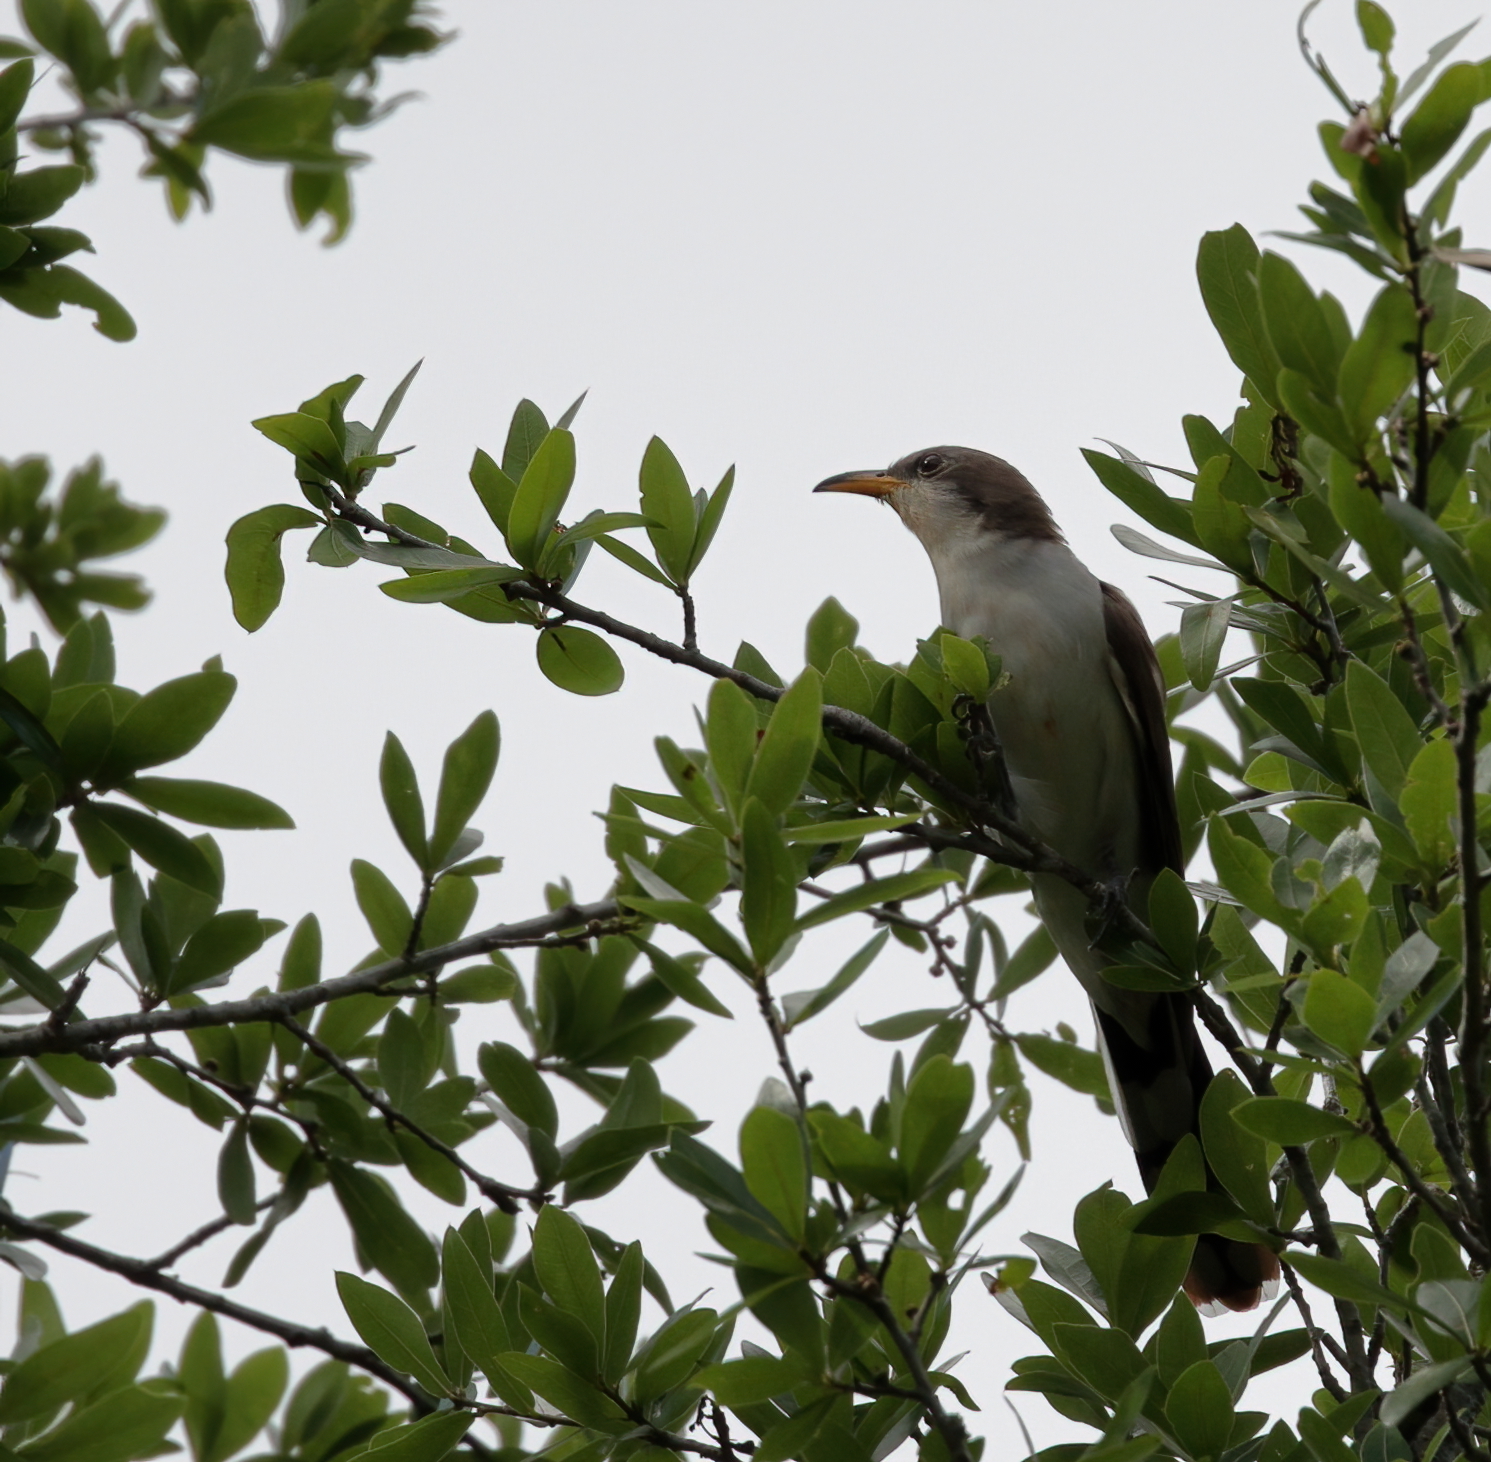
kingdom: Animalia
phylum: Chordata
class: Aves
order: Cuculiformes
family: Cuculidae
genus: Coccyzus
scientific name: Coccyzus americanus
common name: Yellow-billed cuckoo
